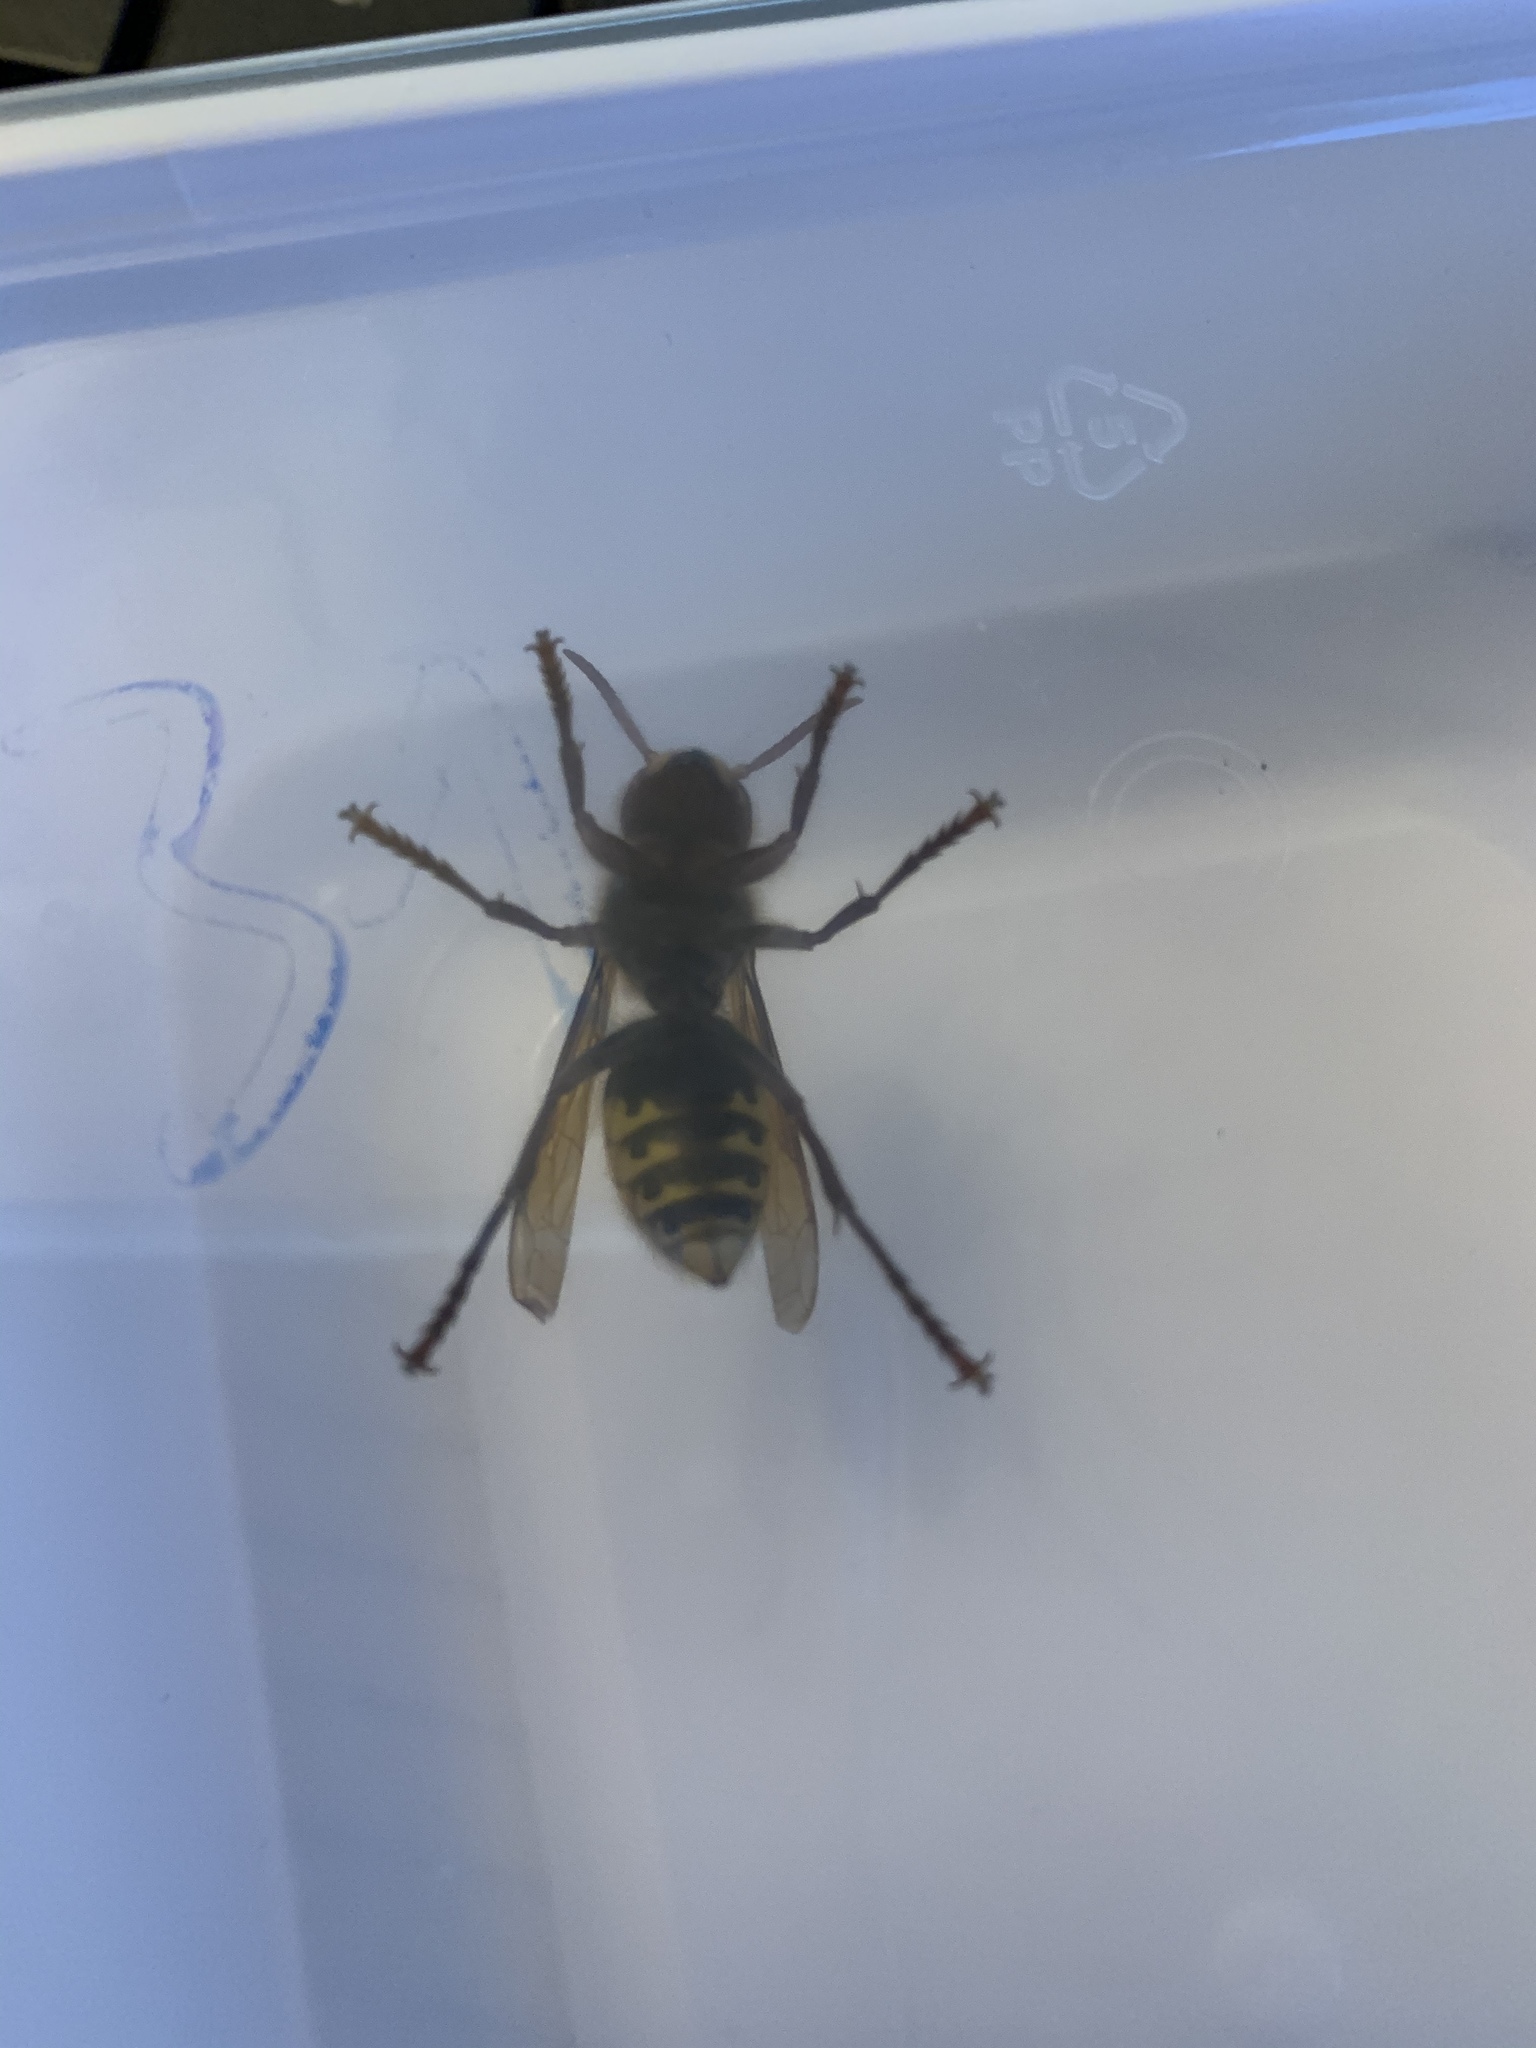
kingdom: Animalia
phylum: Arthropoda
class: Insecta
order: Hymenoptera
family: Vespidae
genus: Vespa
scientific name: Vespa crabro
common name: Hornet
